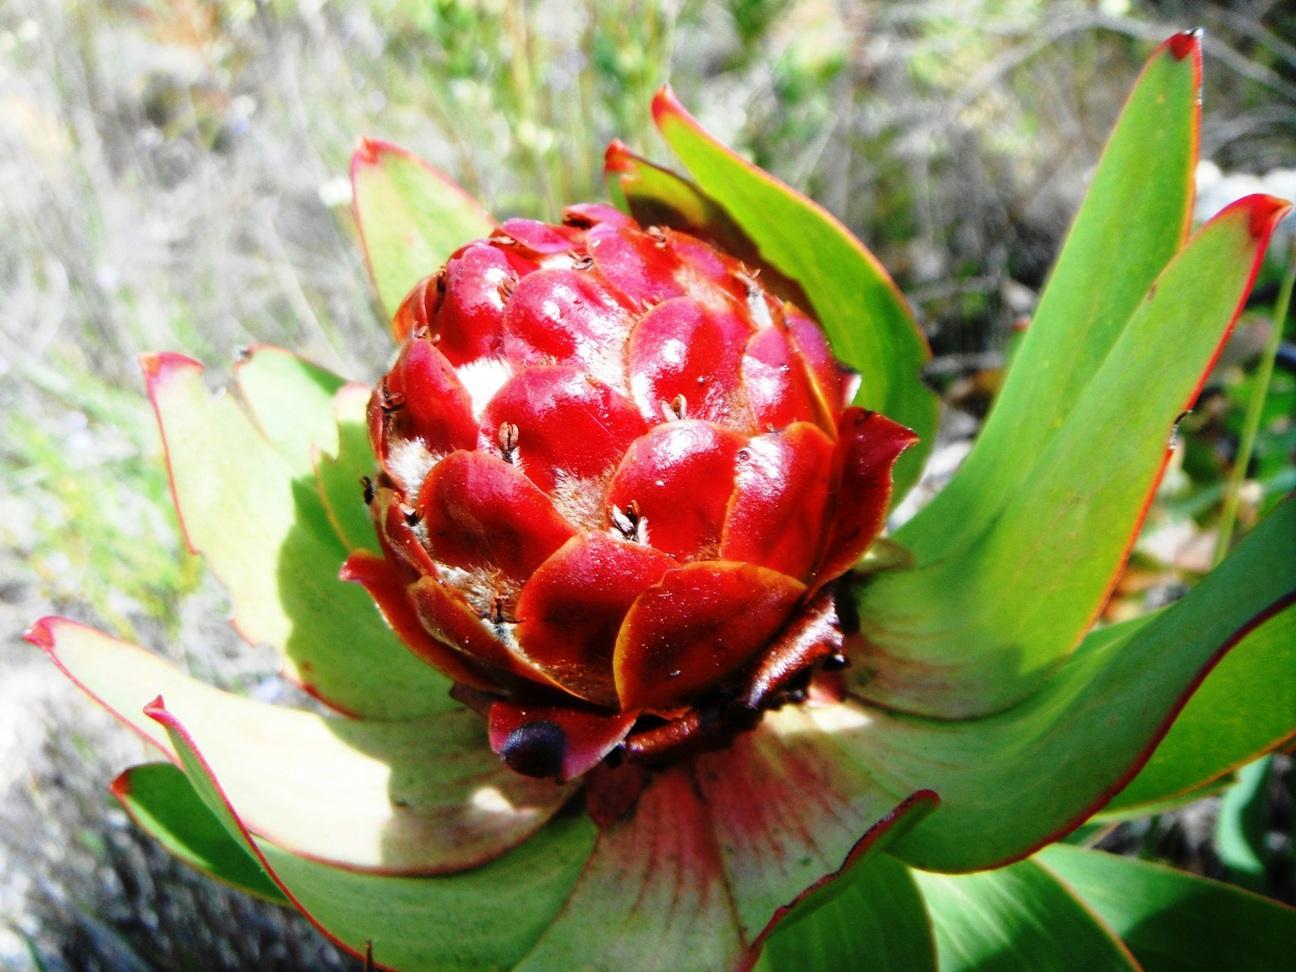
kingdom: Plantae
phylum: Tracheophyta
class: Magnoliopsida
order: Proteales
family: Proteaceae
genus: Leucadendron
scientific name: Leucadendron tinctum
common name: Spicy conebush
